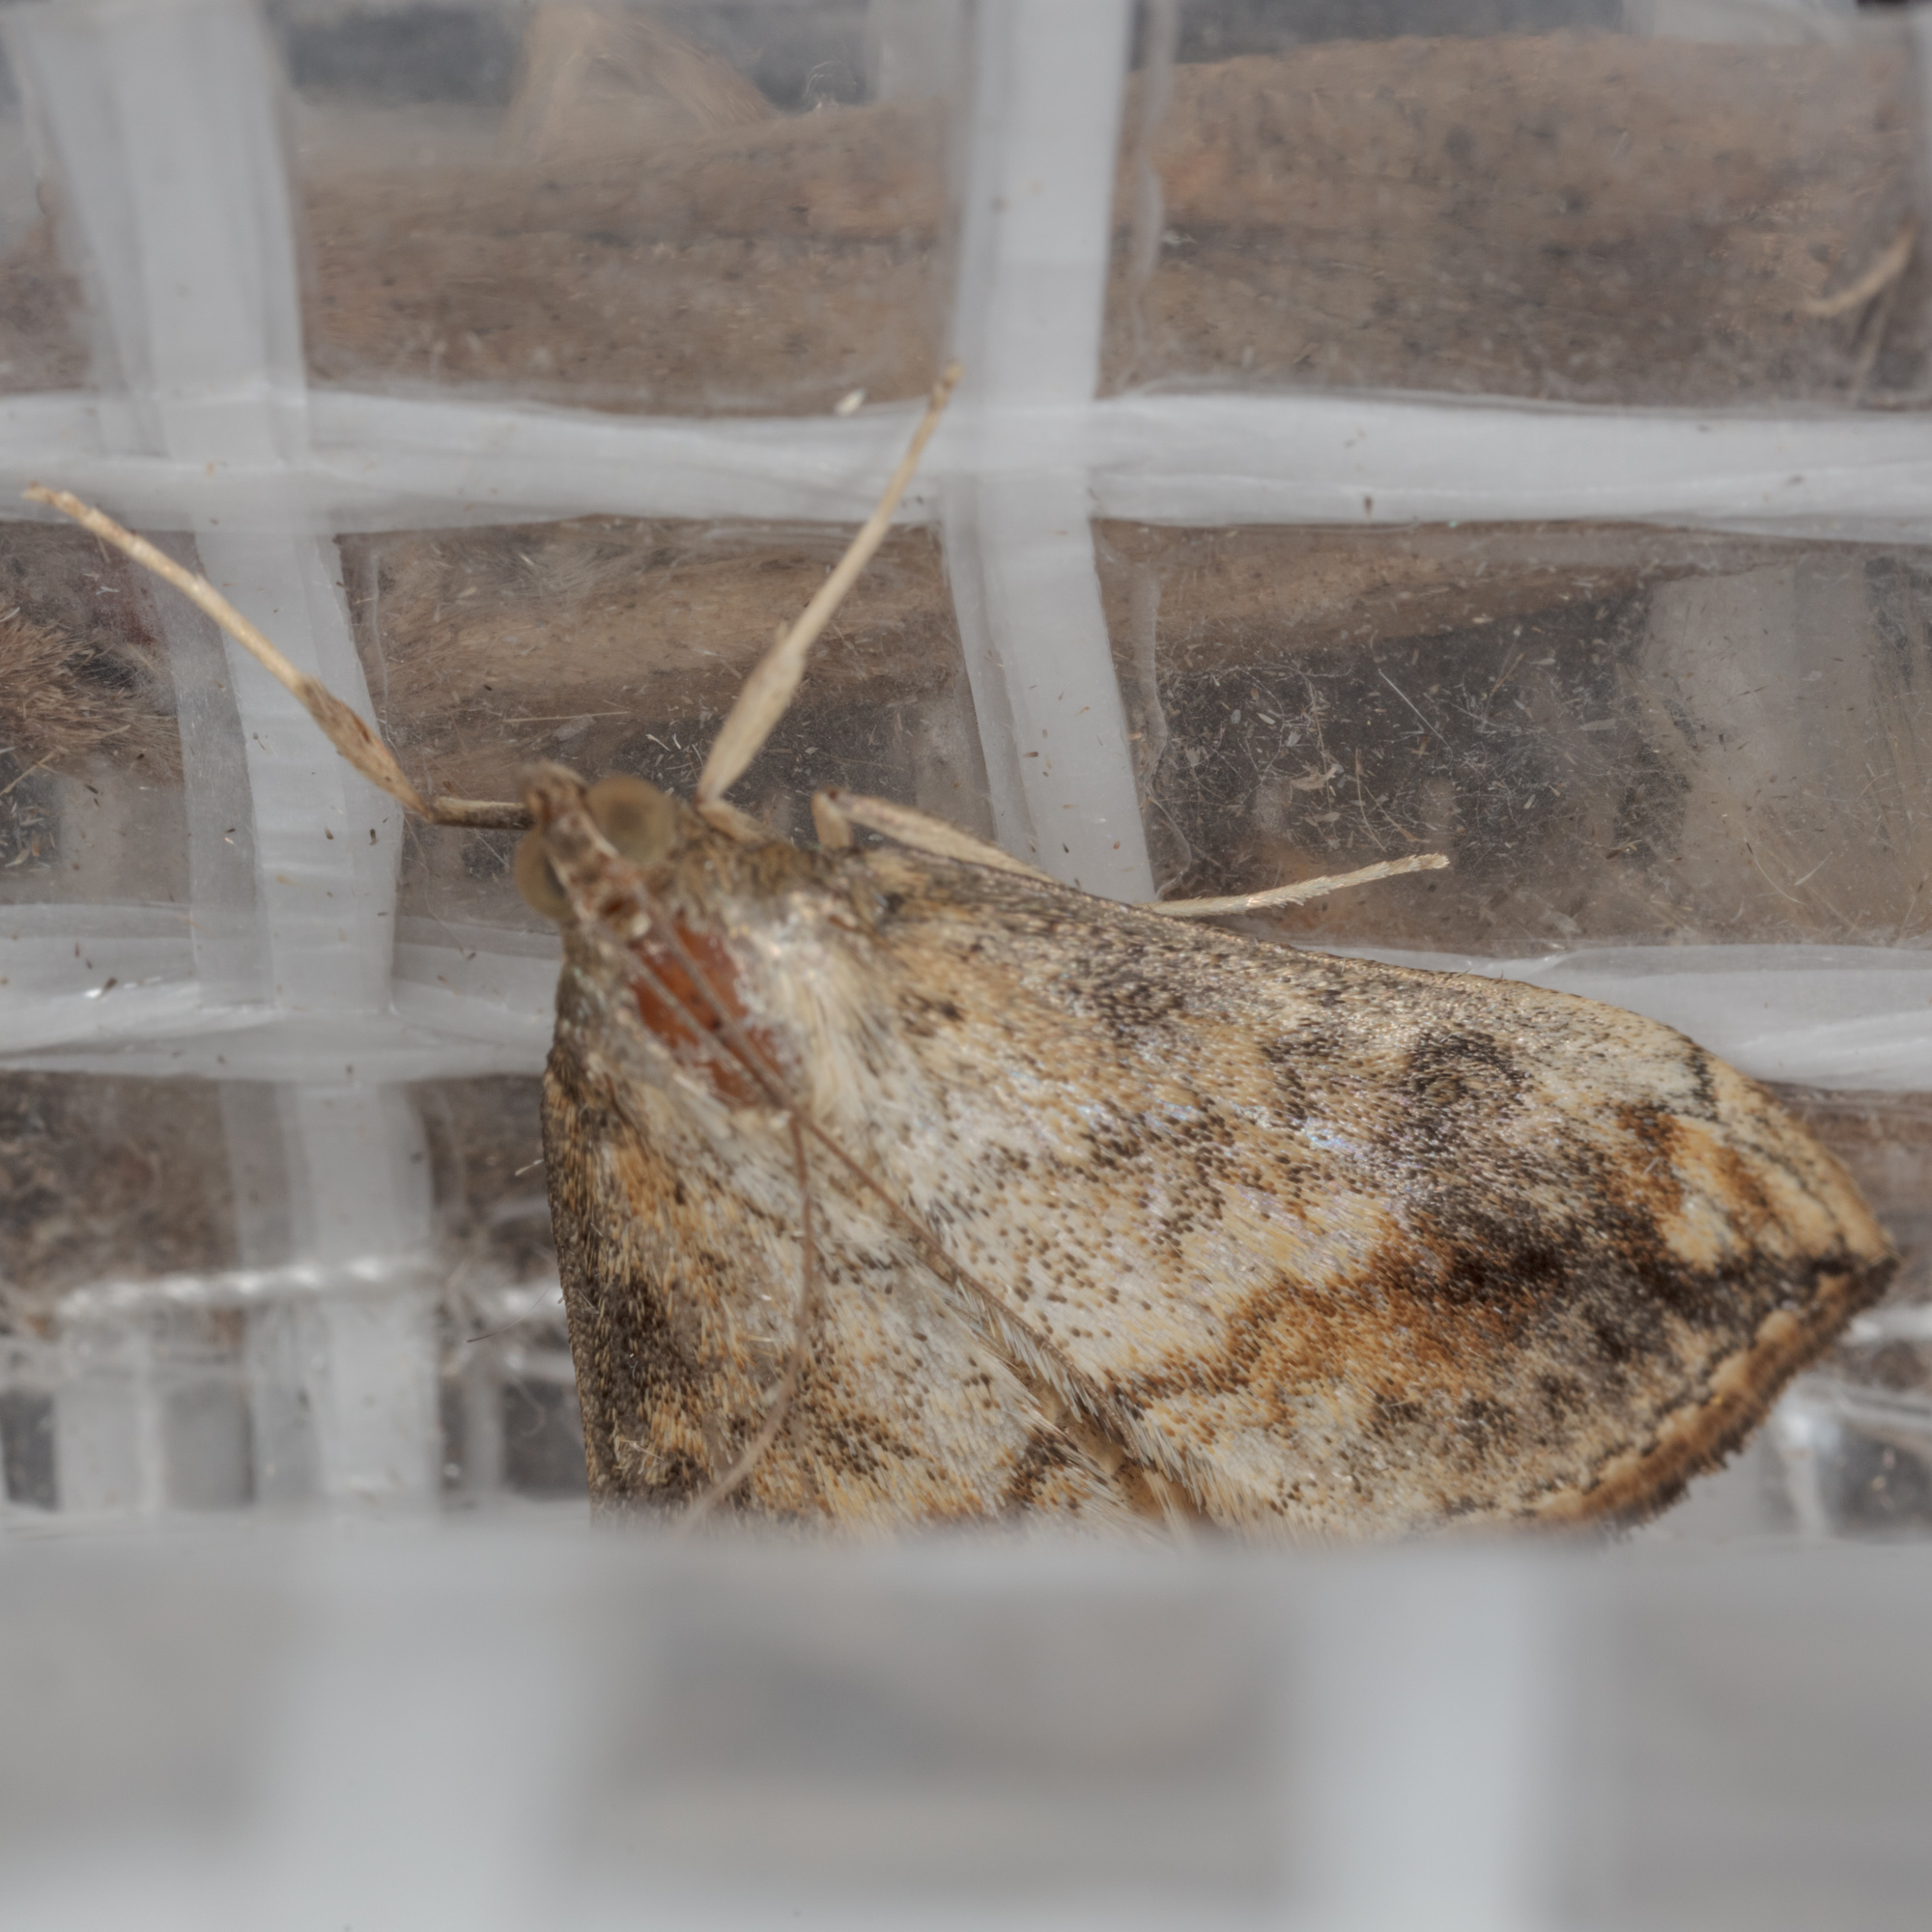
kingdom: Animalia
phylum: Arthropoda
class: Insecta
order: Lepidoptera
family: Crambidae
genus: Evergestis
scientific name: Evergestis rimosalis
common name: Cross-striped cabbageworm moth
